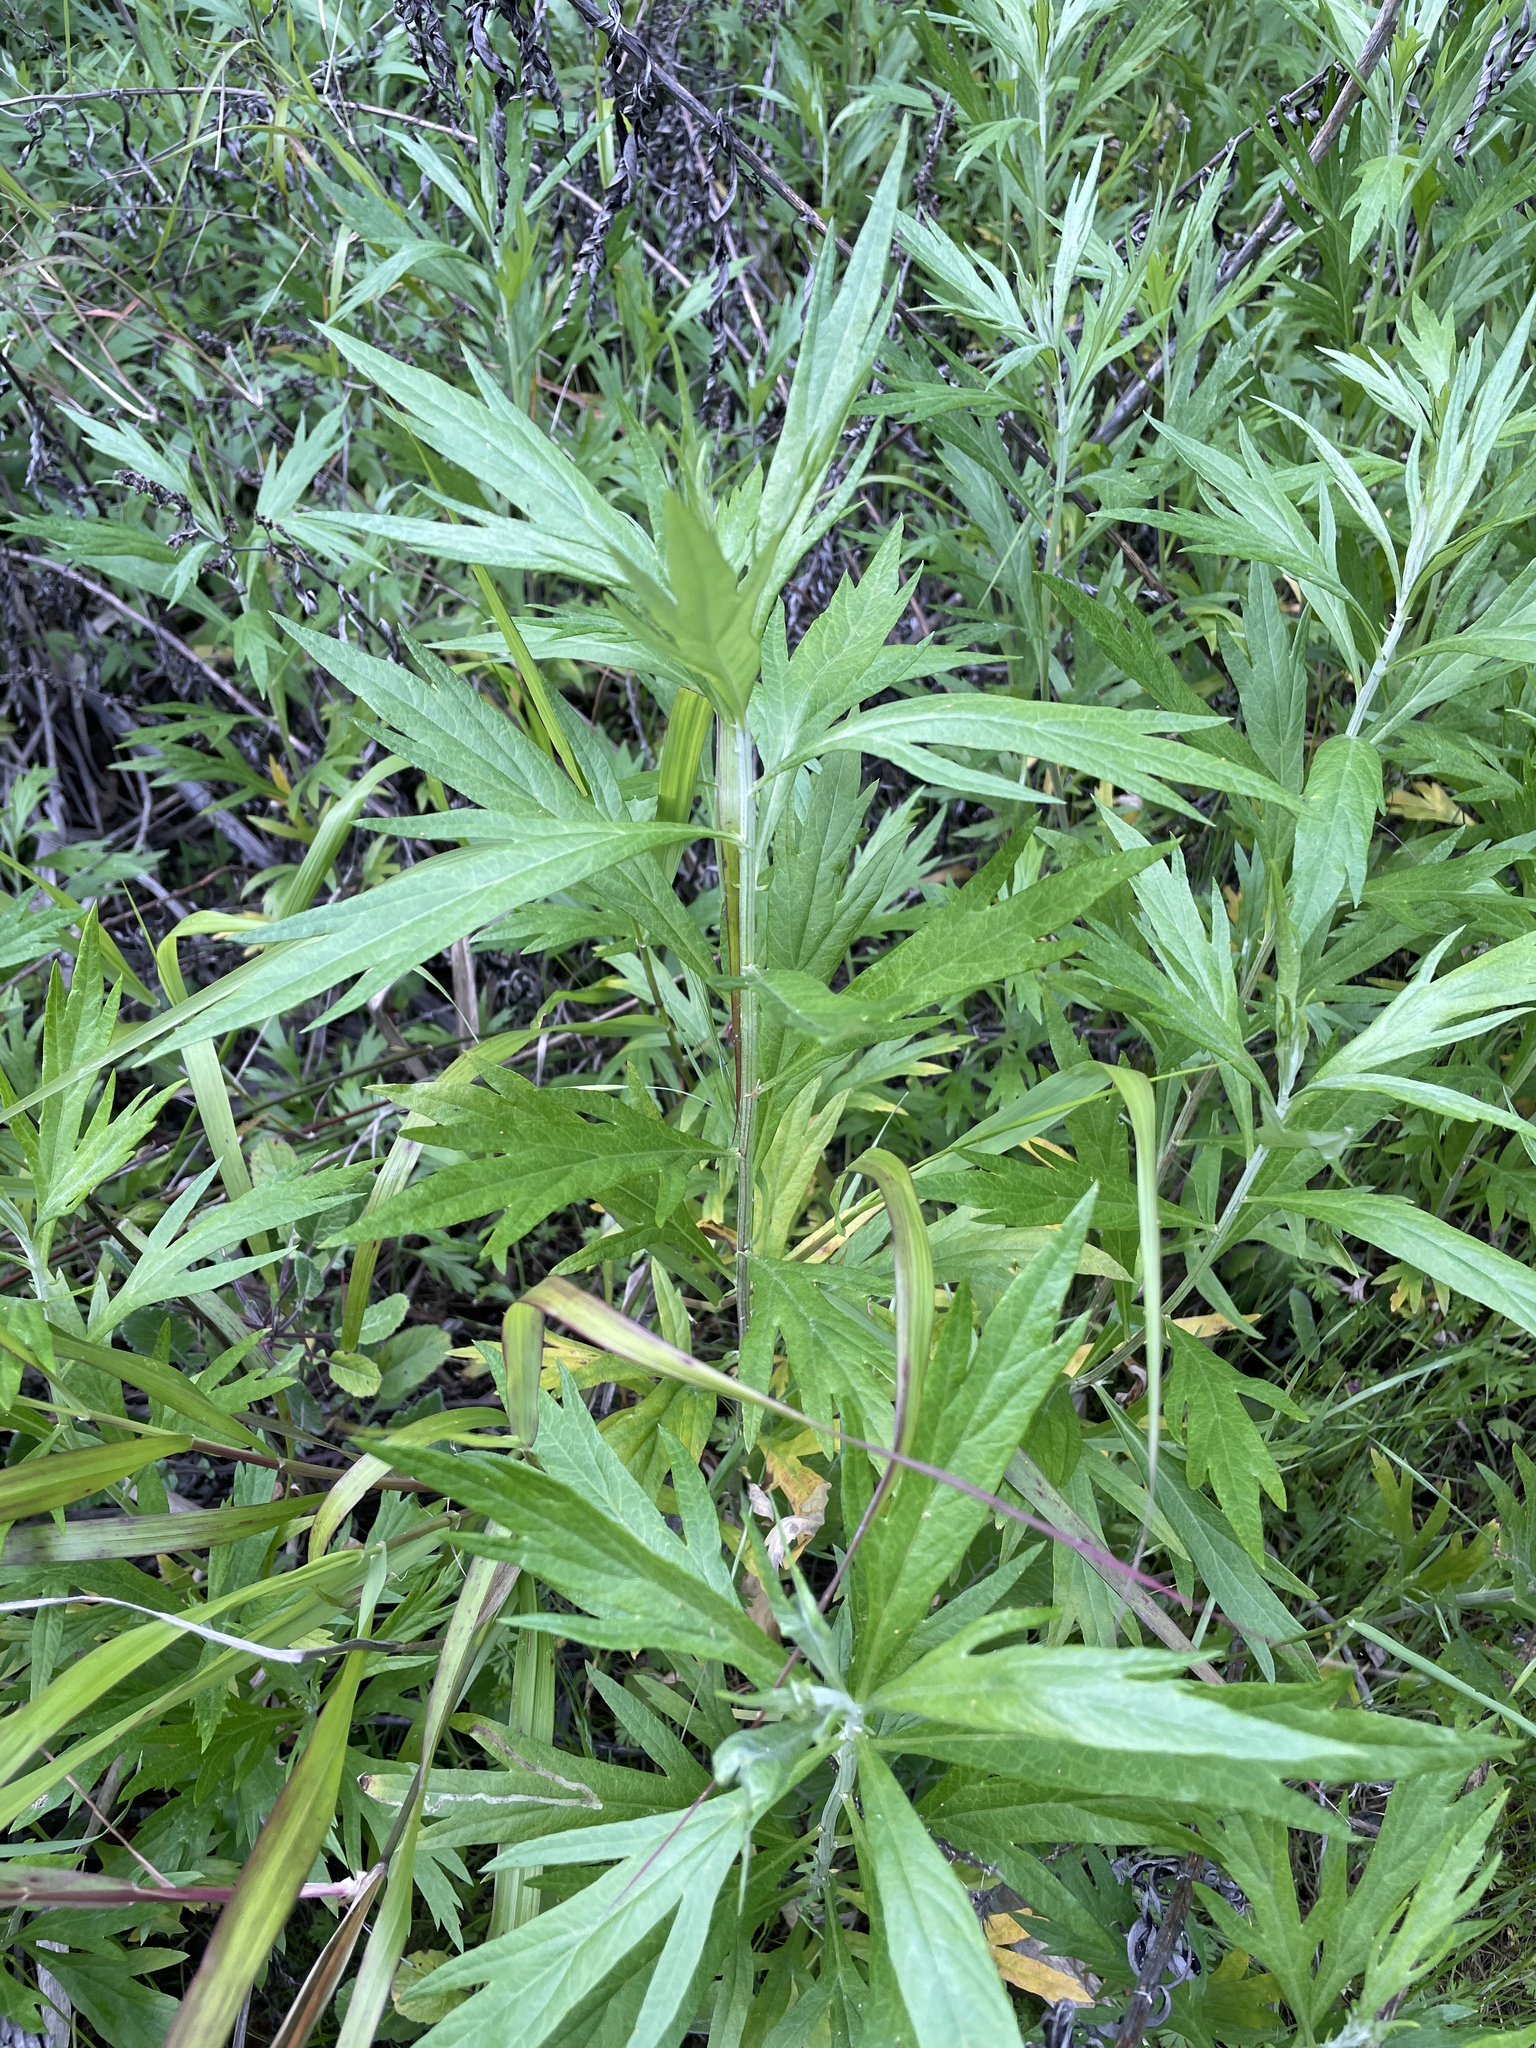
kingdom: Plantae
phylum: Tracheophyta
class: Magnoliopsida
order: Asterales
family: Asteraceae
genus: Artemisia
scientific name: Artemisia douglasiana
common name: Northwest mugwort
